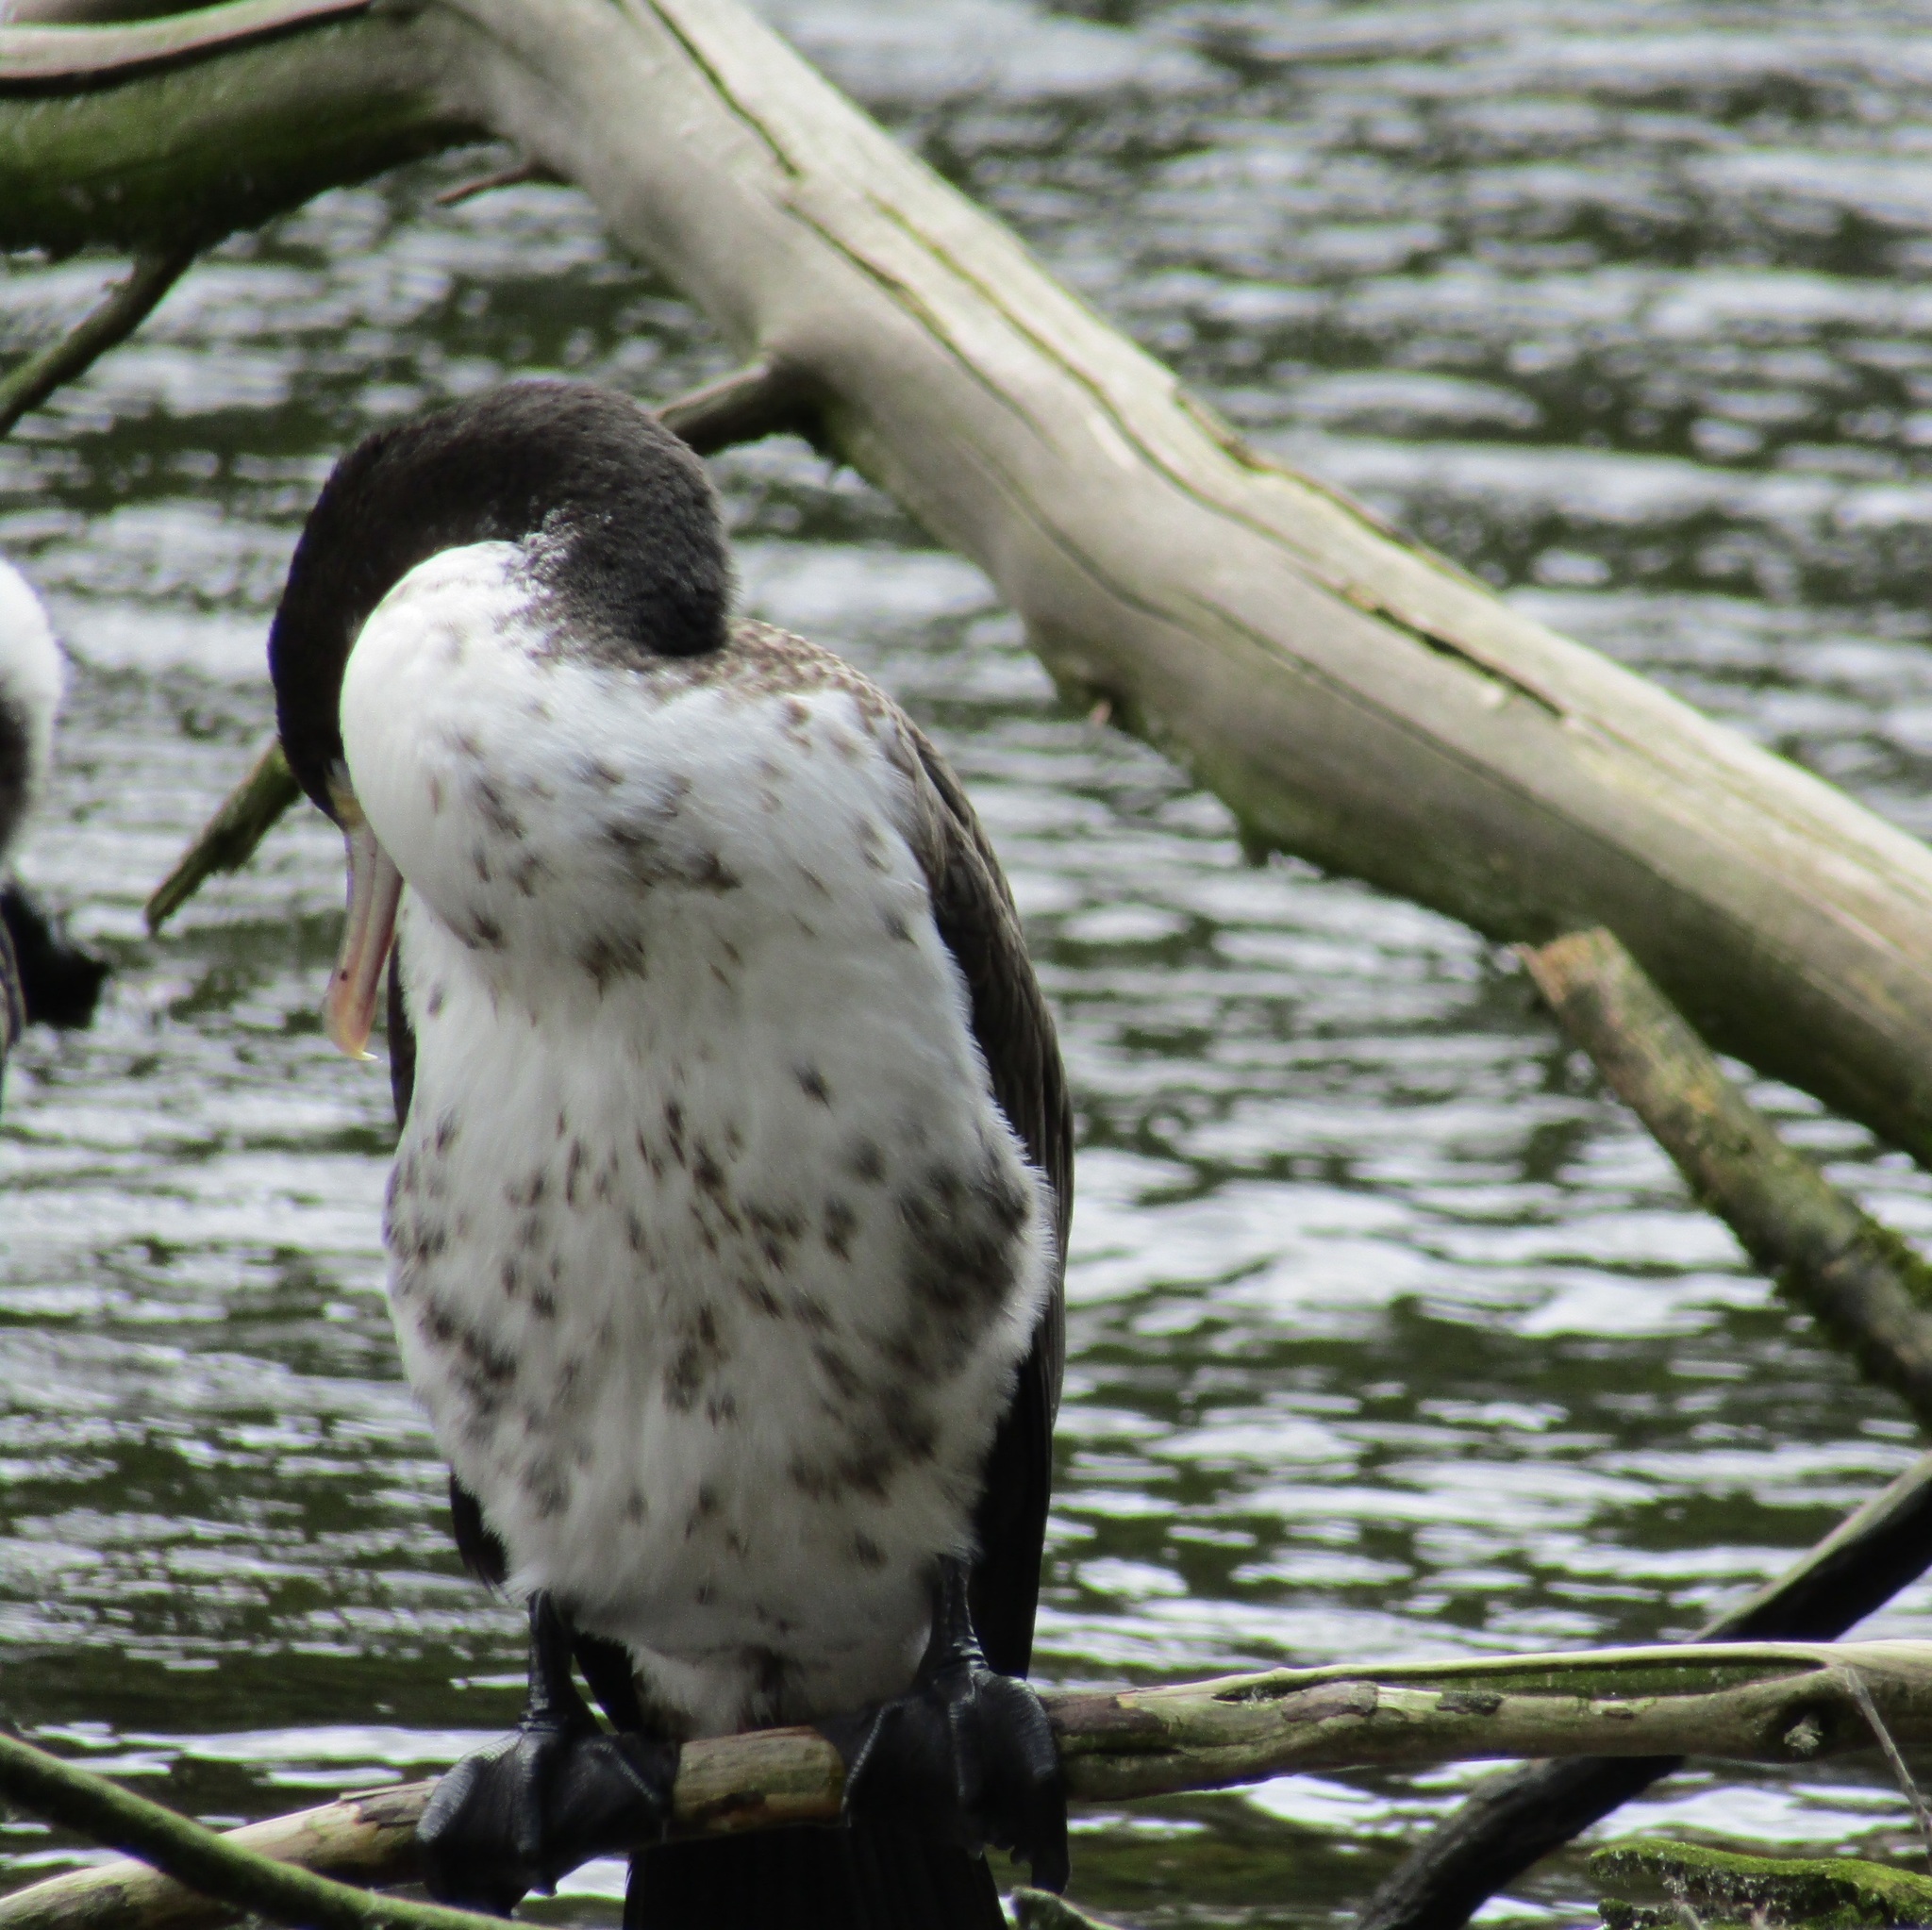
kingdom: Animalia
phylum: Chordata
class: Aves
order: Suliformes
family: Phalacrocoracidae
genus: Phalacrocorax
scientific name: Phalacrocorax varius
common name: Pied cormorant
